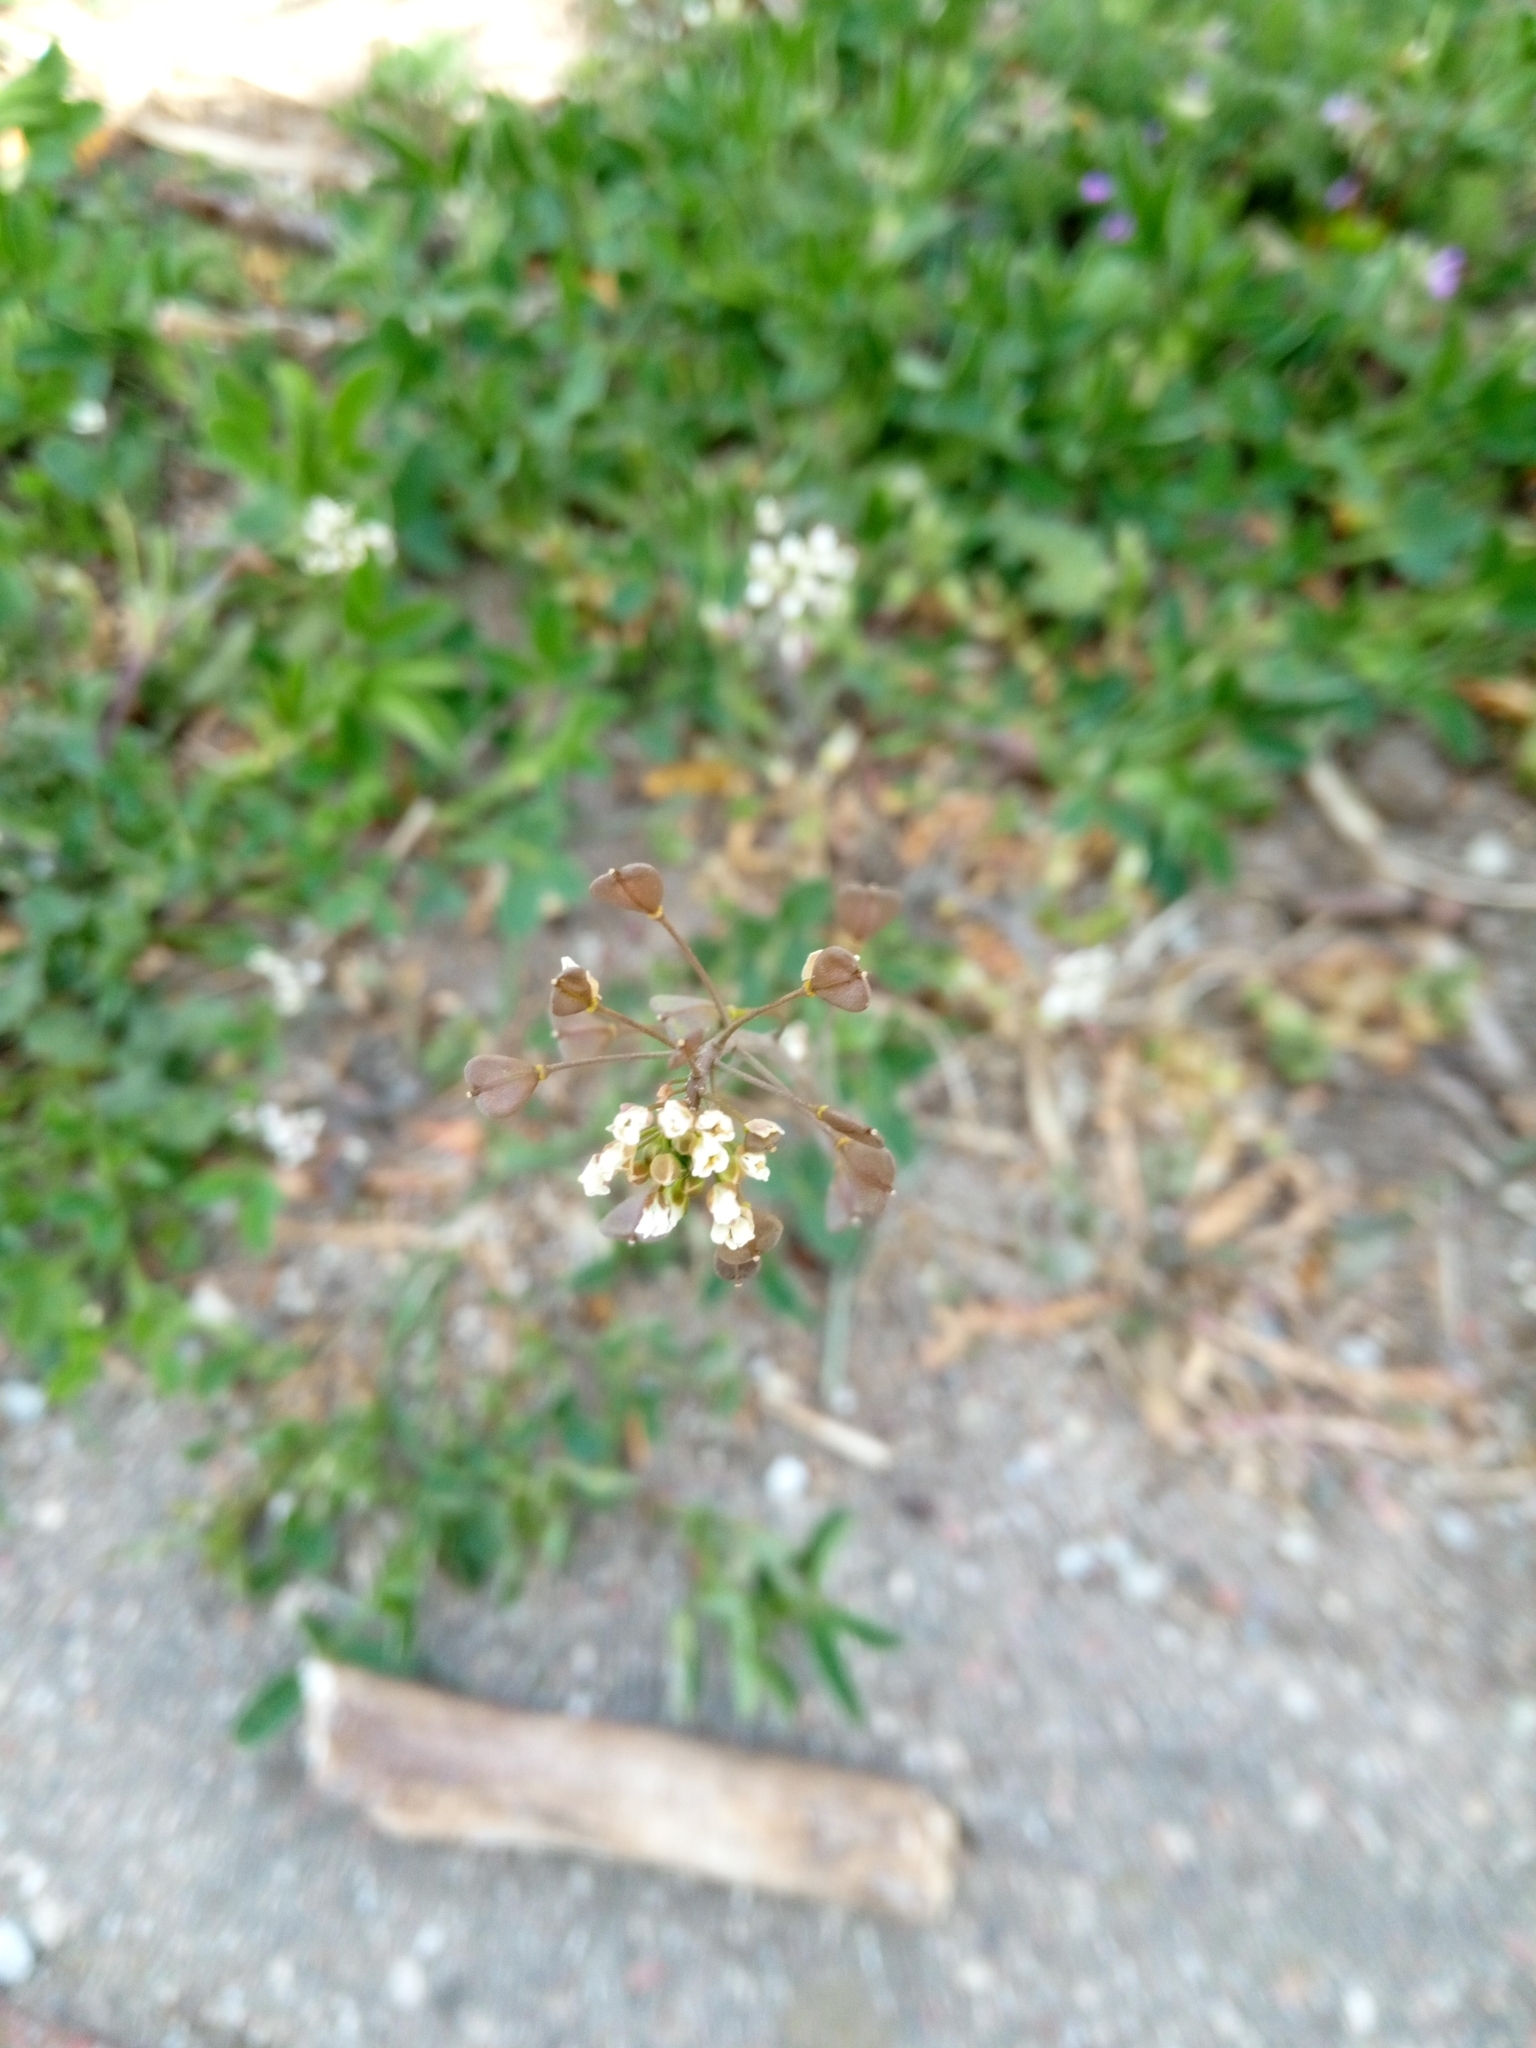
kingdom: Plantae
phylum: Tracheophyta
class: Magnoliopsida
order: Brassicales
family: Brassicaceae
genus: Capsella
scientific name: Capsella bursa-pastoris
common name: Shepherd's purse
